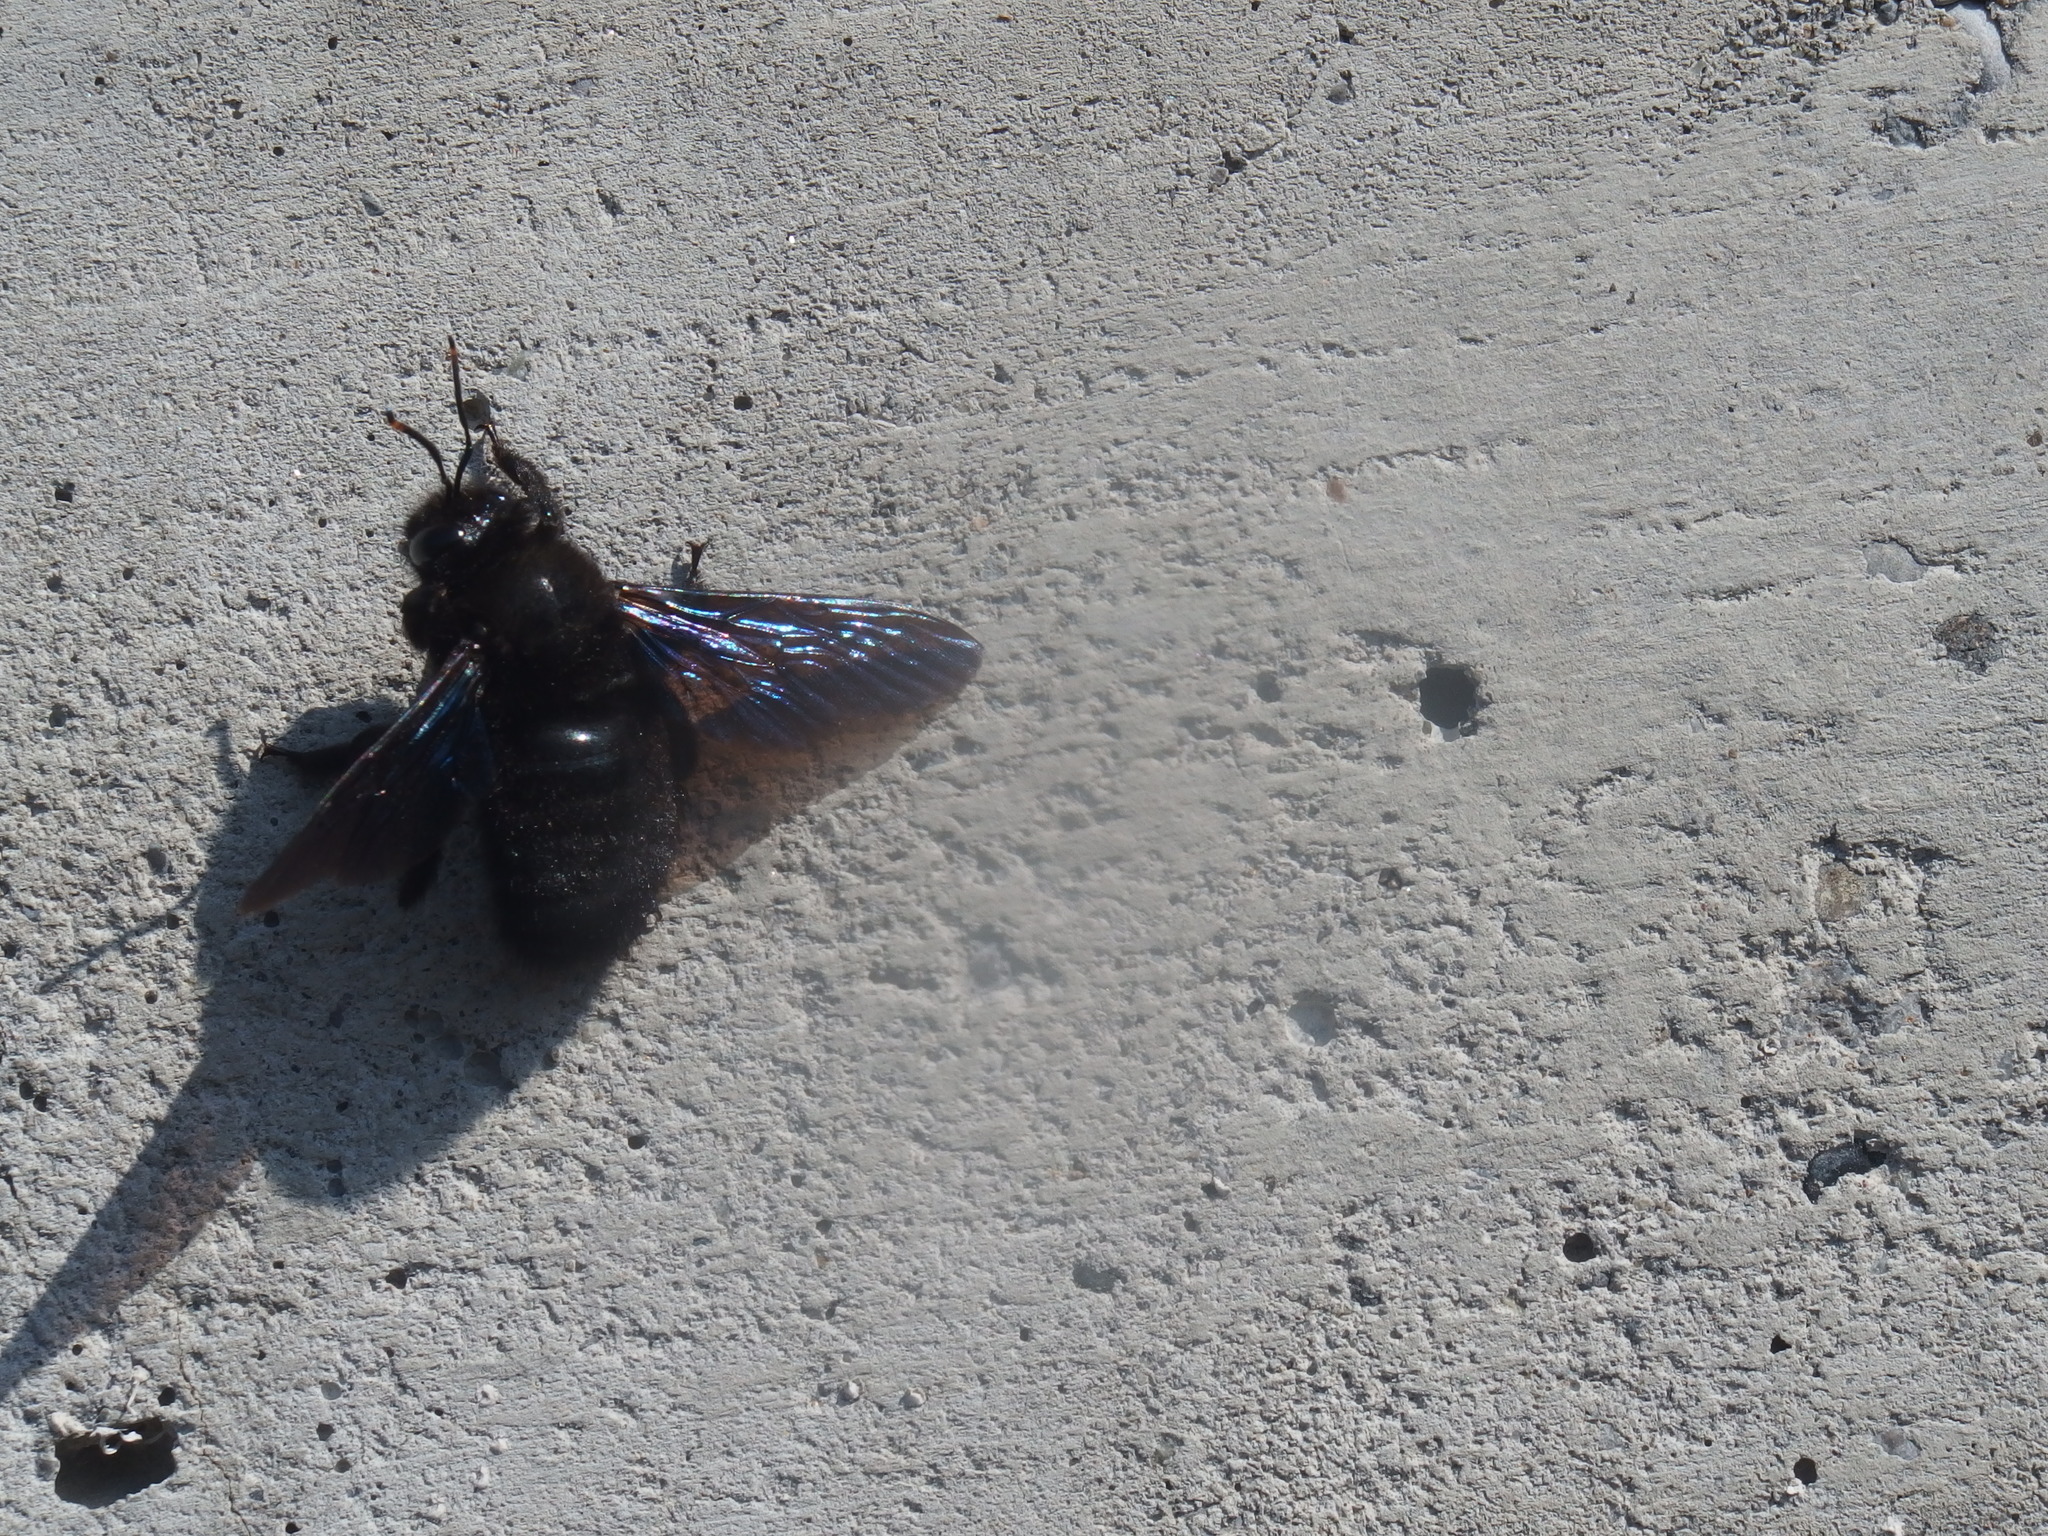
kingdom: Animalia
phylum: Arthropoda
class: Insecta
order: Hymenoptera
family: Apidae
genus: Xylocopa
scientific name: Xylocopa violacea
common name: Violet carpenter bee
